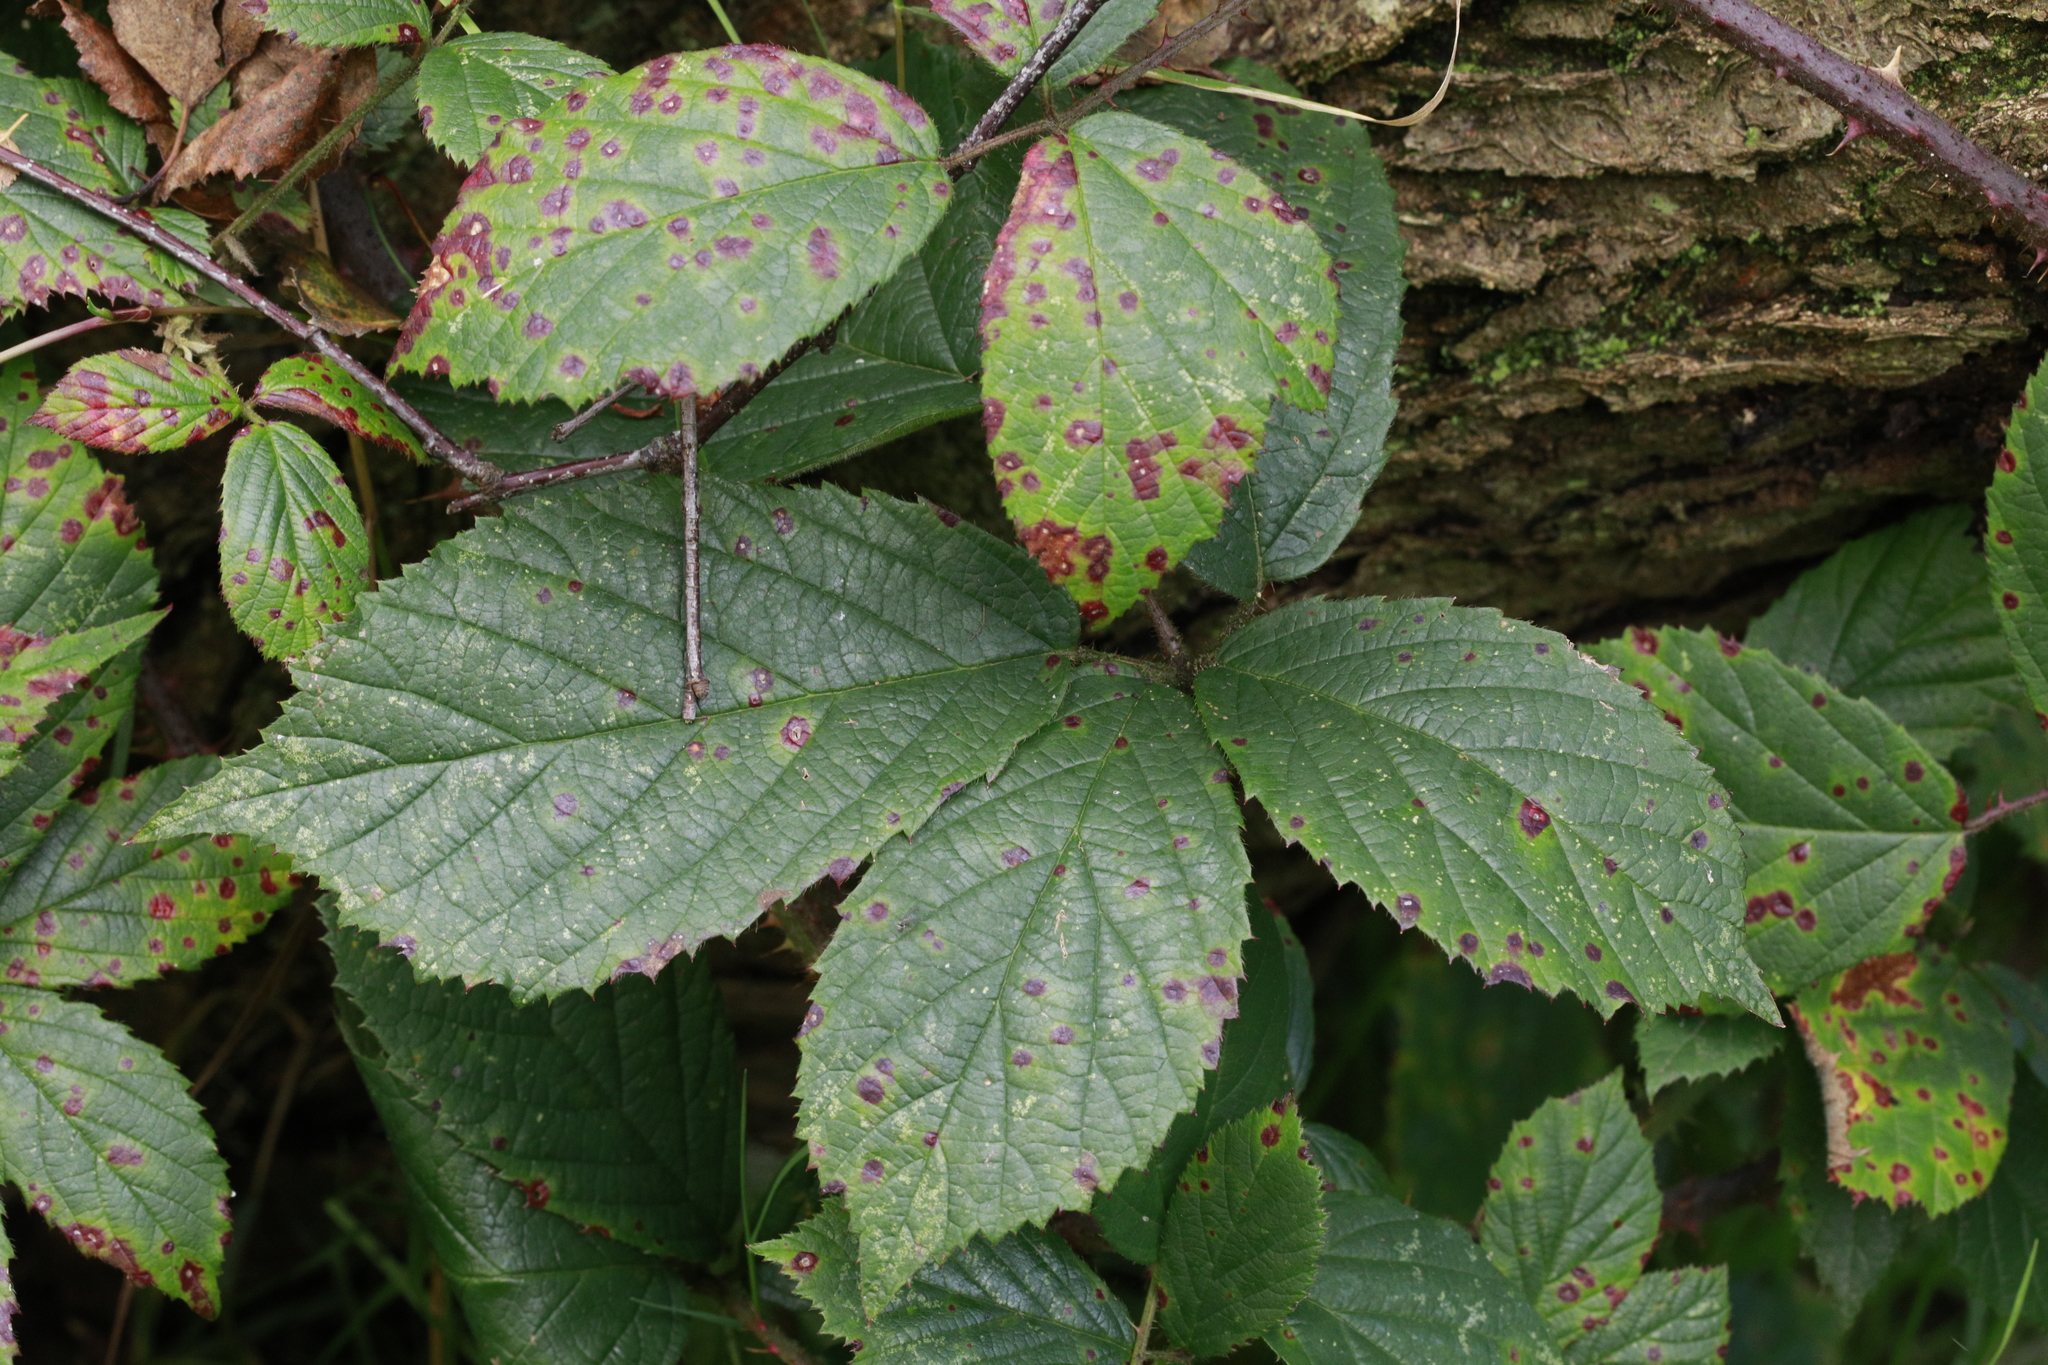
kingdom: Plantae
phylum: Tracheophyta
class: Magnoliopsida
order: Rosales
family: Rosaceae
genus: Rubus
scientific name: Rubus dasyphyllus
